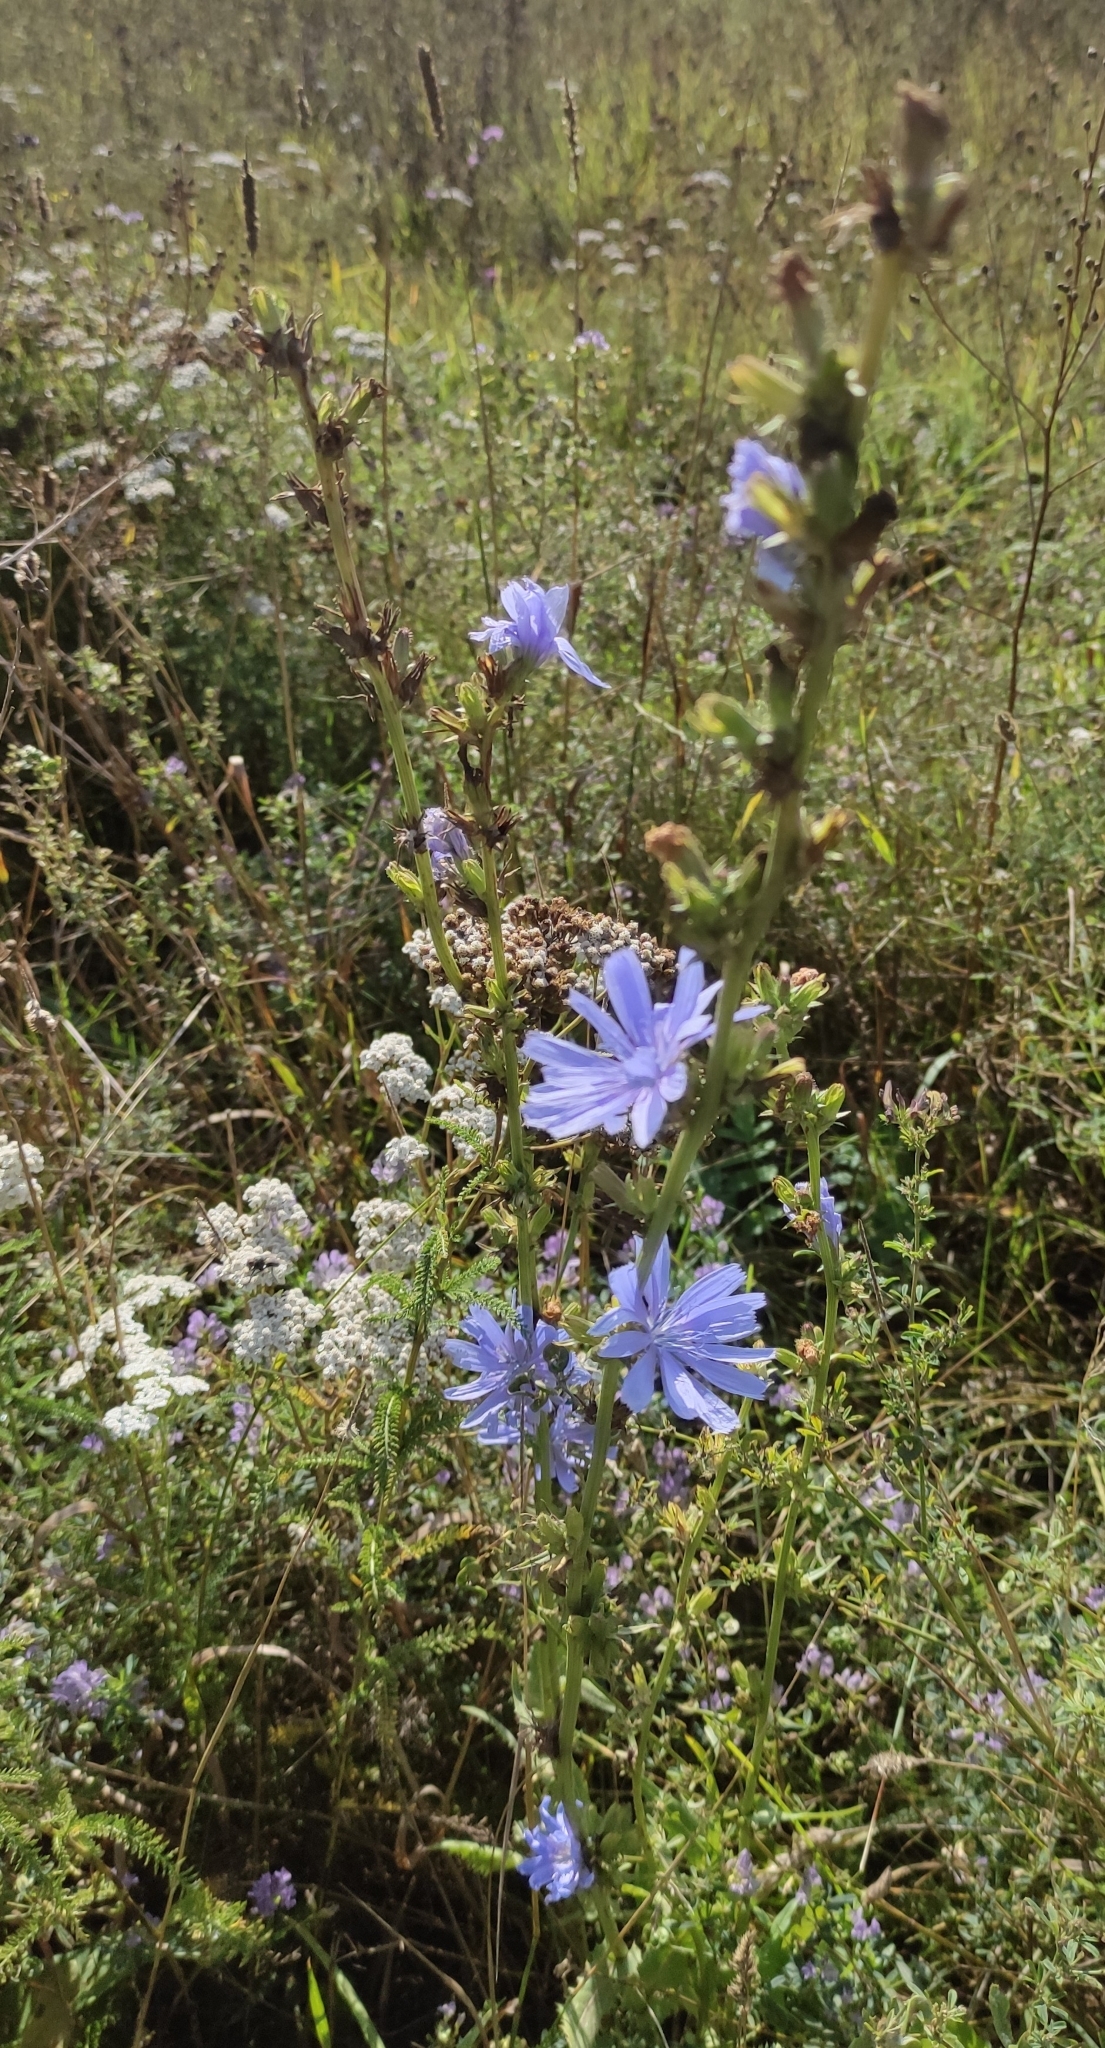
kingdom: Plantae
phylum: Tracheophyta
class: Magnoliopsida
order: Asterales
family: Asteraceae
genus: Cichorium
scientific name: Cichorium intybus
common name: Chicory
